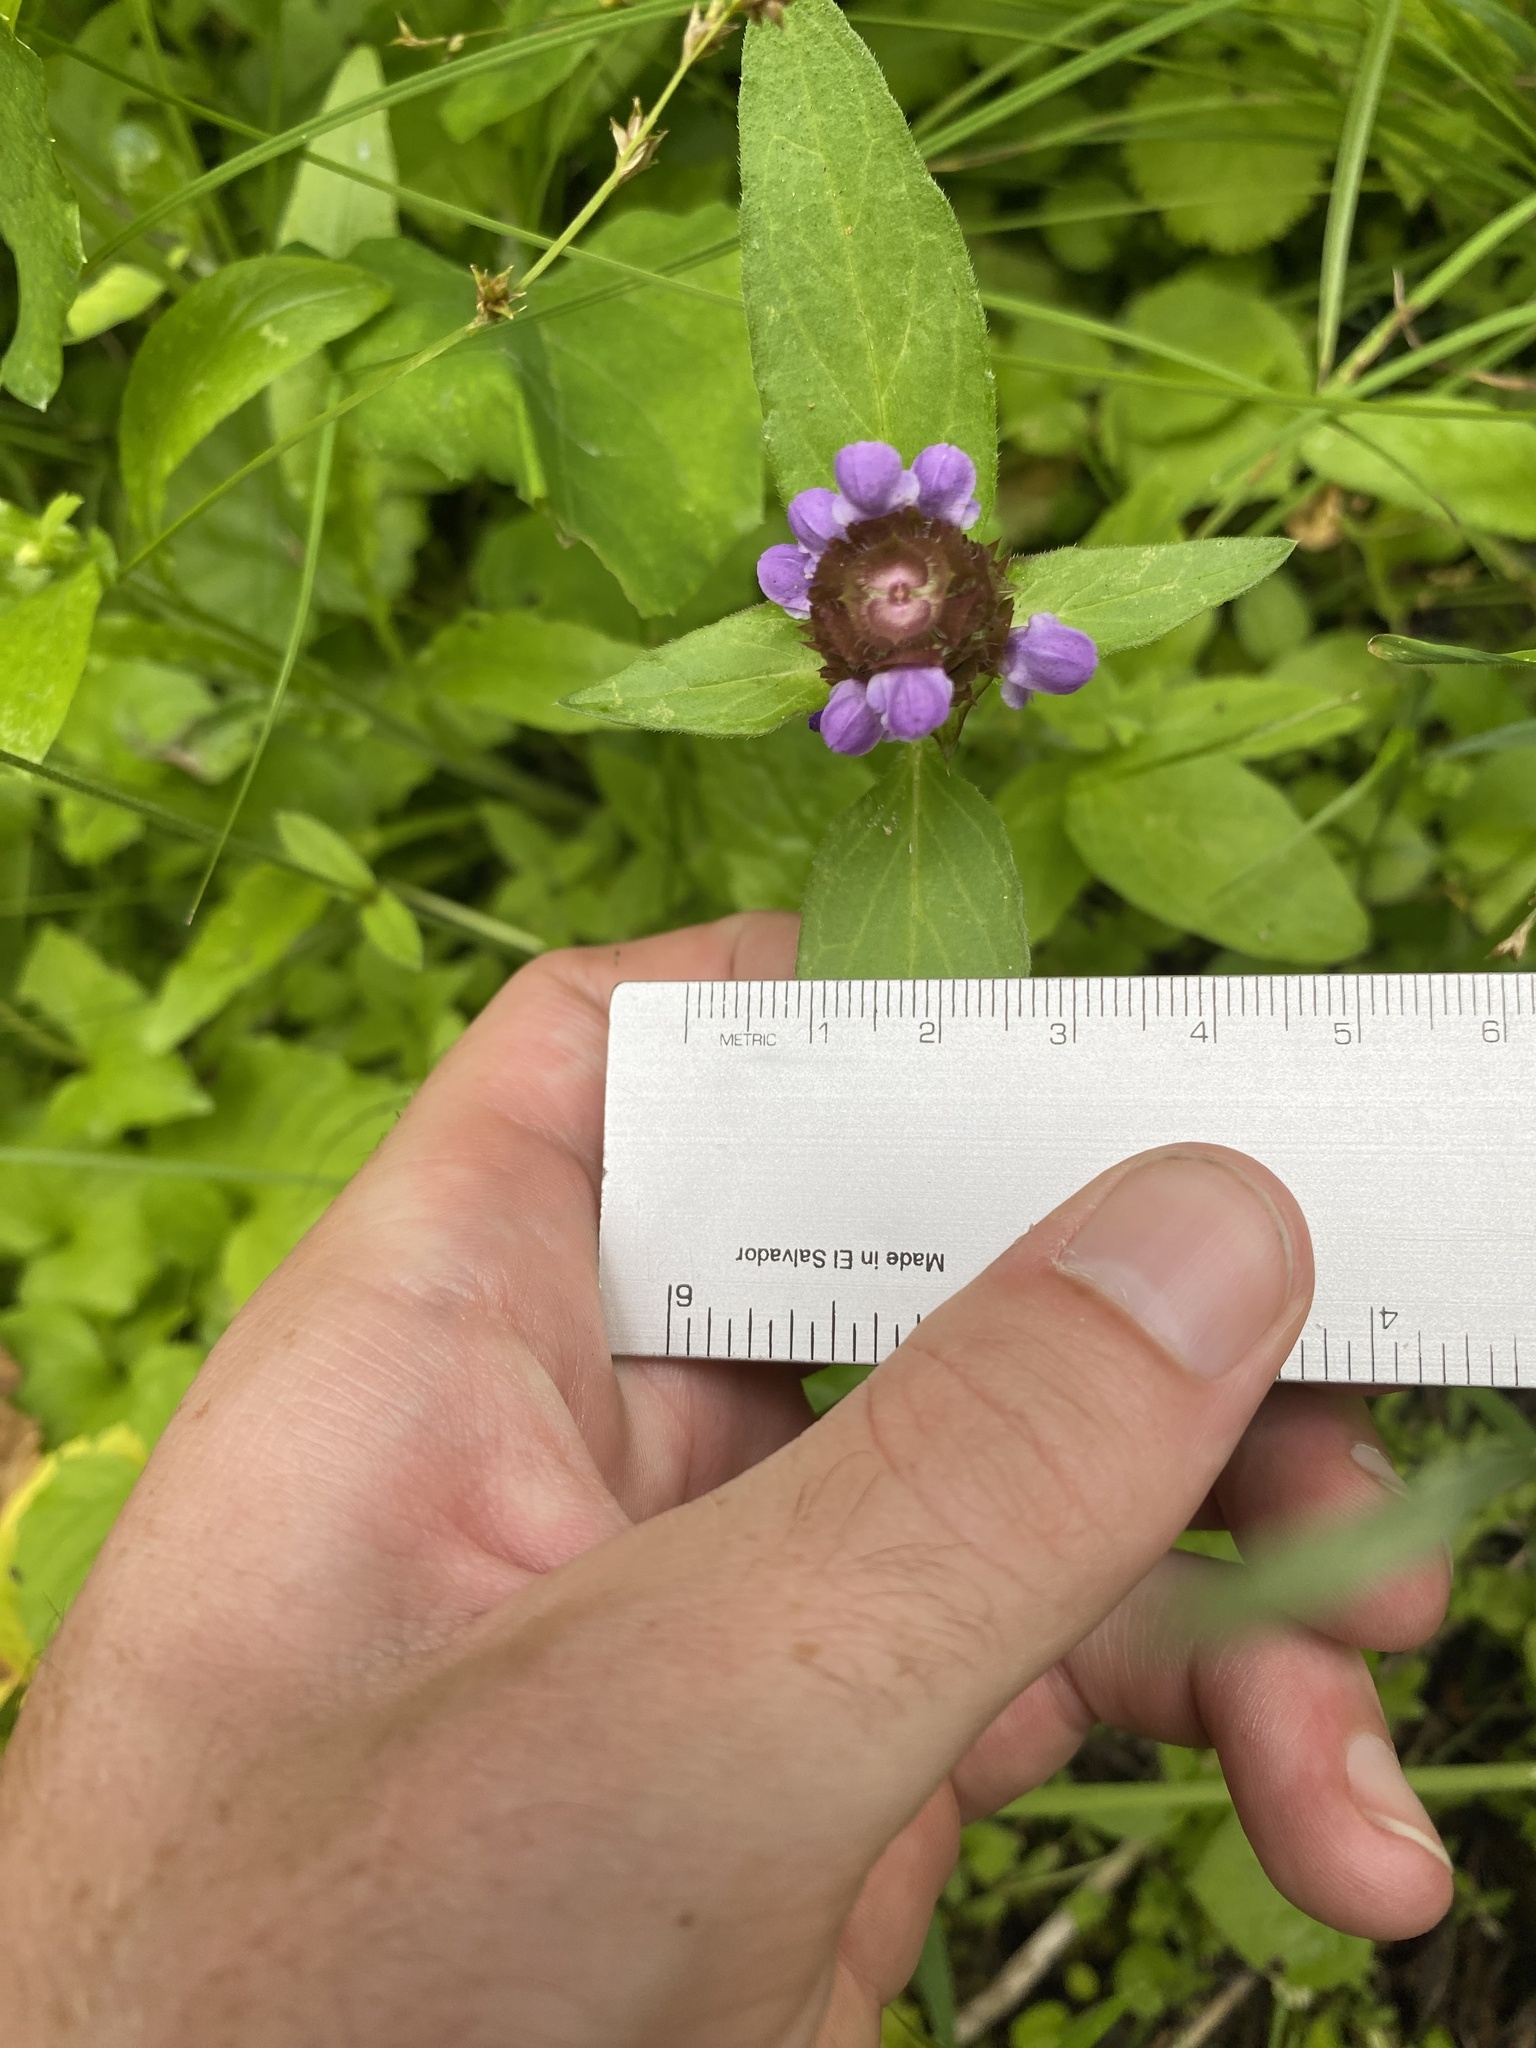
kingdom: Plantae
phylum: Tracheophyta
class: Magnoliopsida
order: Lamiales
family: Lamiaceae
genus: Prunella
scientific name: Prunella vulgaris
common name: Heal-all
